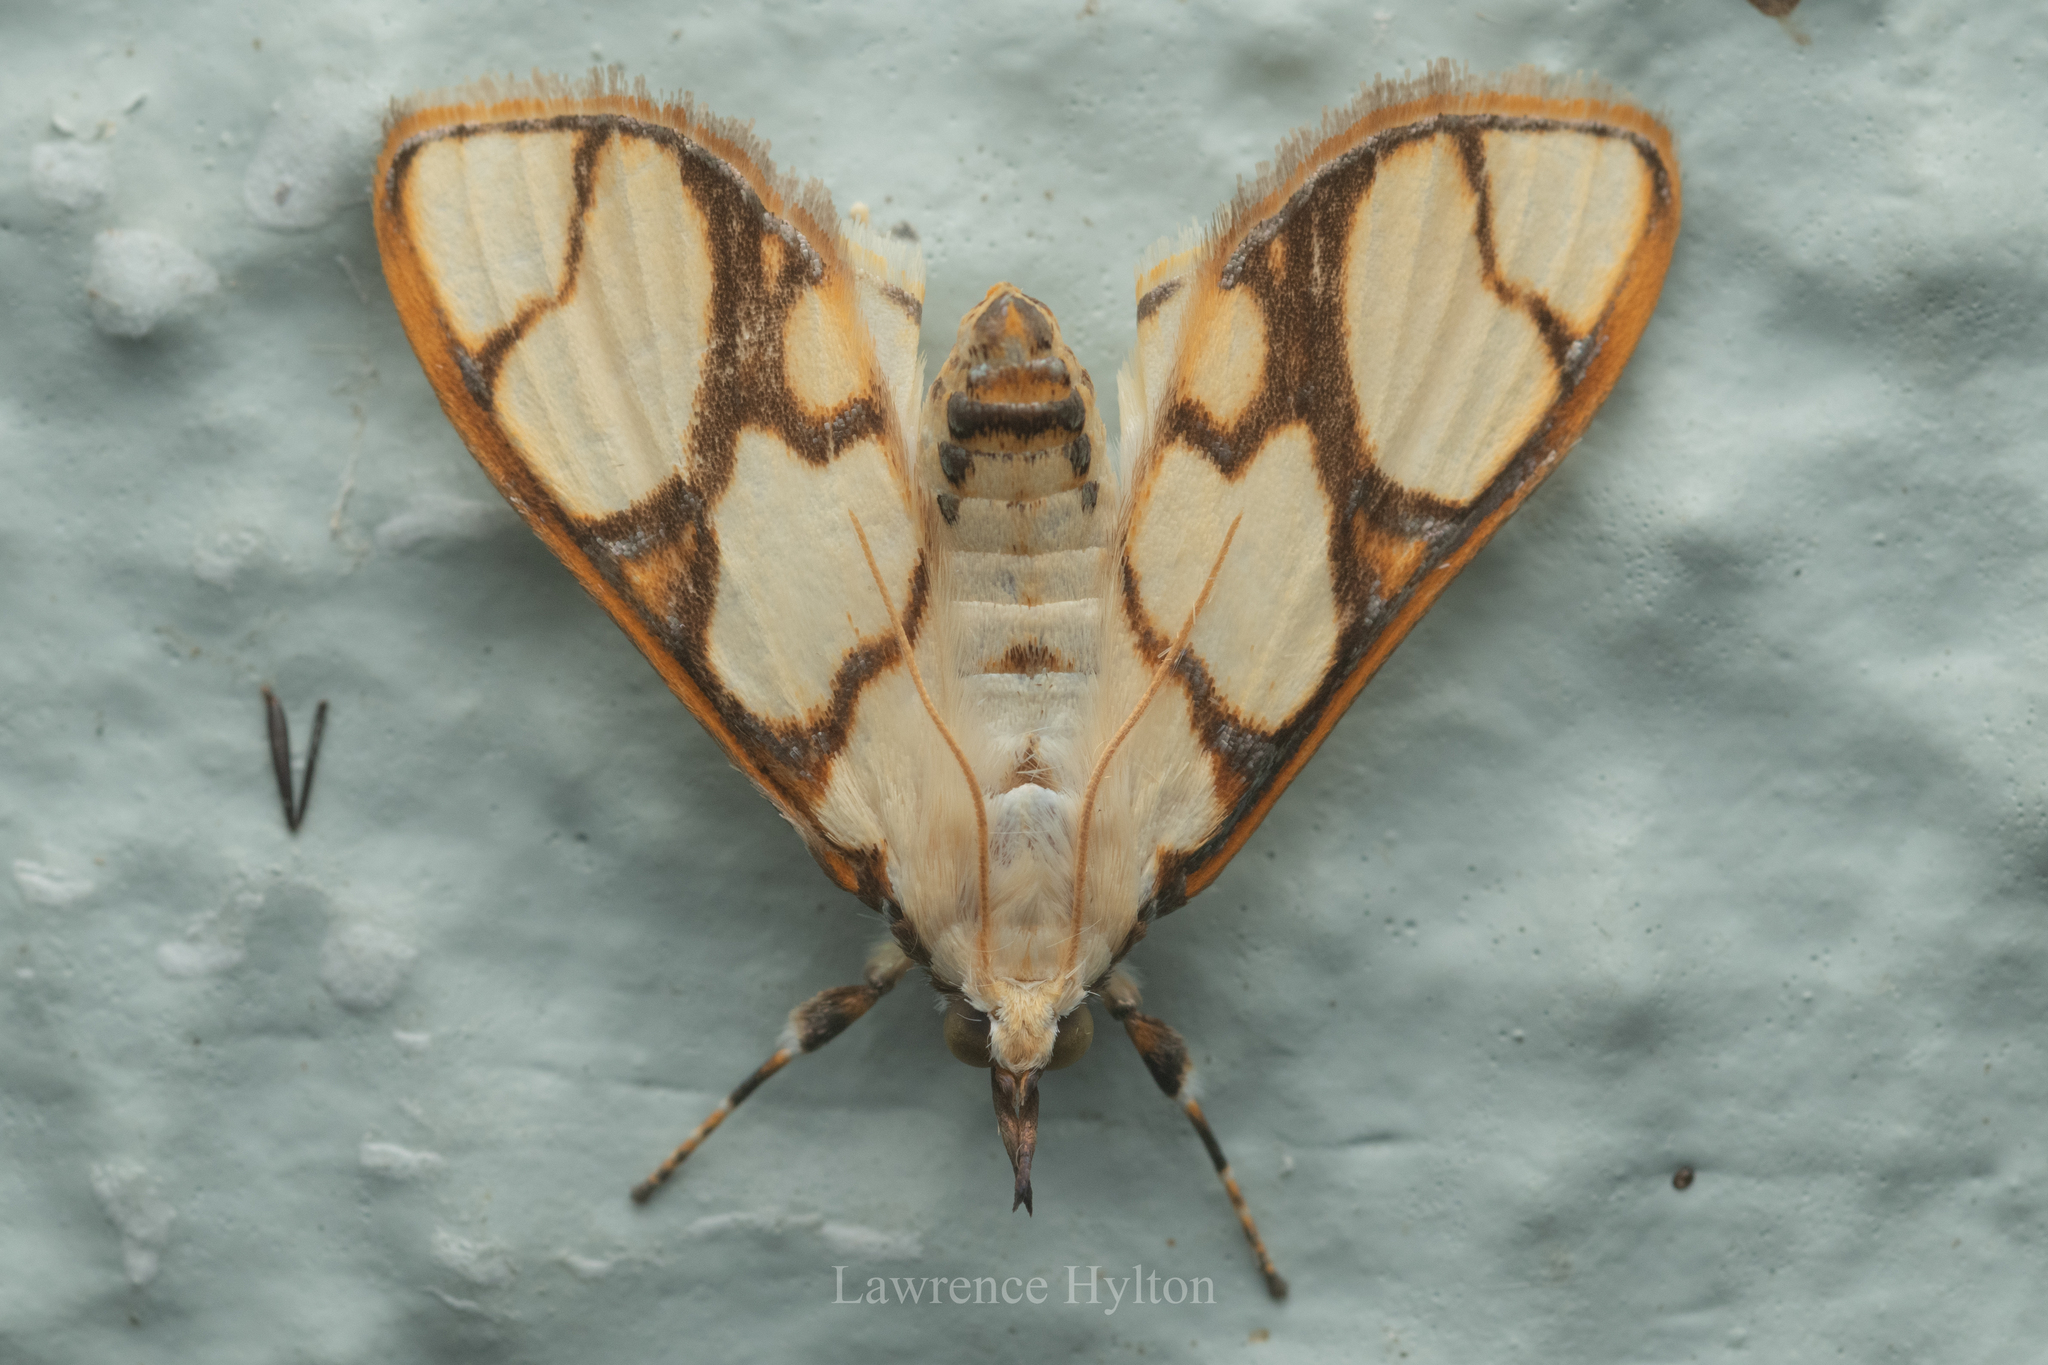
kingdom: Animalia
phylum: Arthropoda
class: Insecta
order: Lepidoptera
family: Crambidae
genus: Cirrhochrista
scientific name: Cirrhochrista fumipalpis
